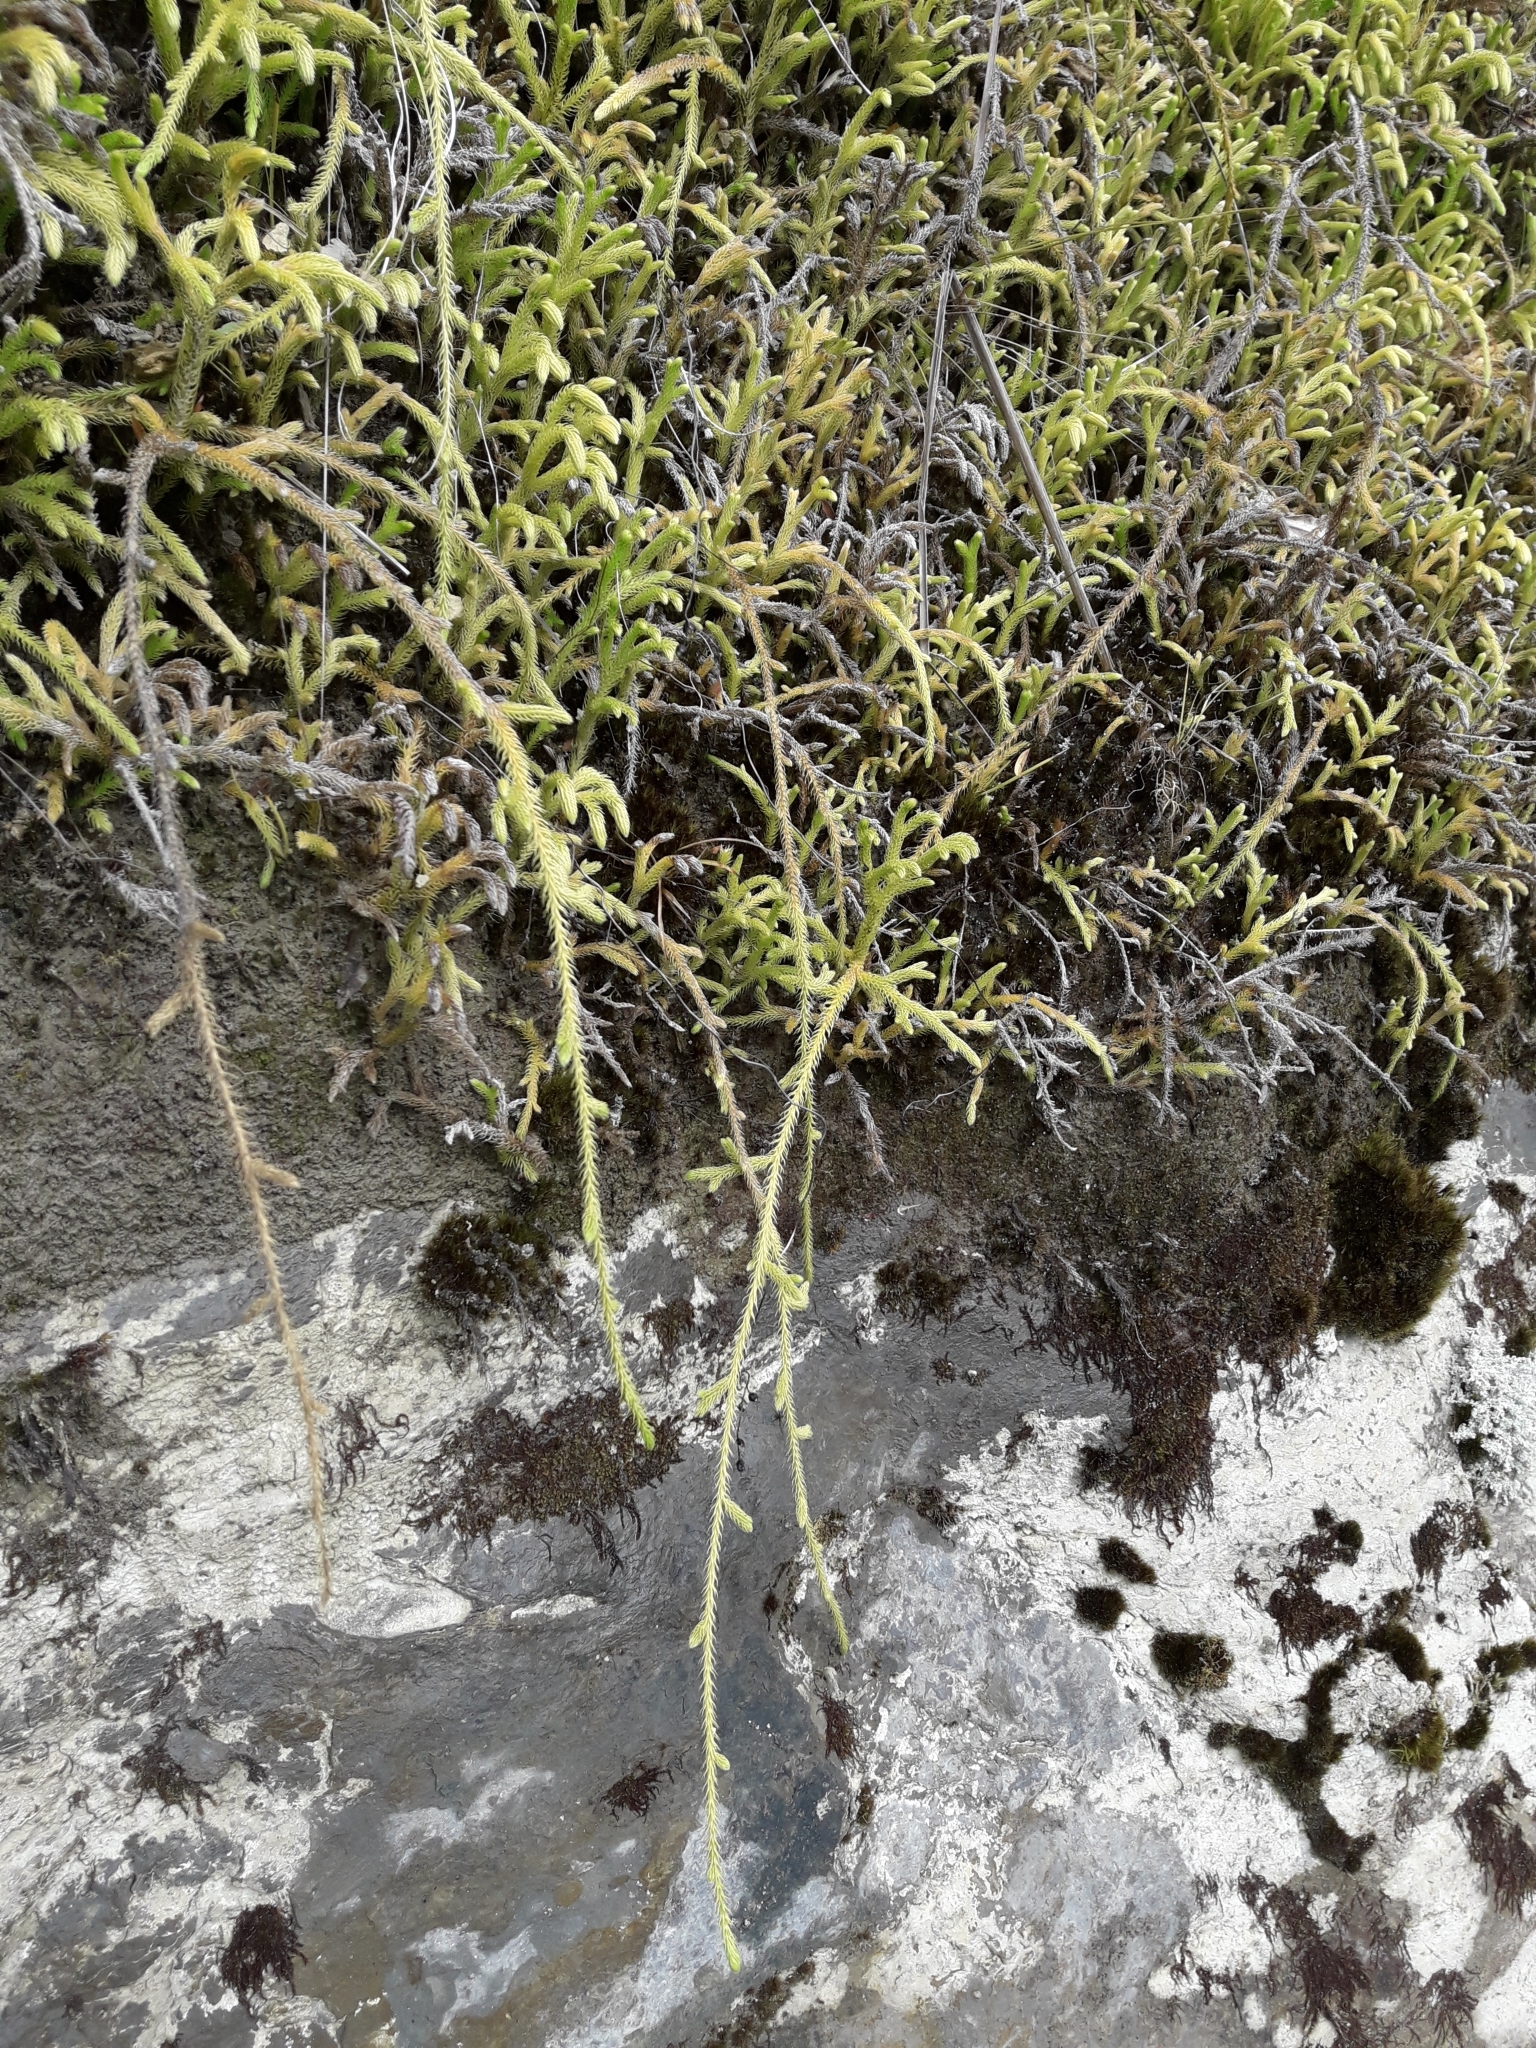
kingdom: Plantae
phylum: Tracheophyta
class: Lycopodiopsida
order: Lycopodiales
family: Lycopodiaceae
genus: Palhinhaea
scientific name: Palhinhaea cernua
